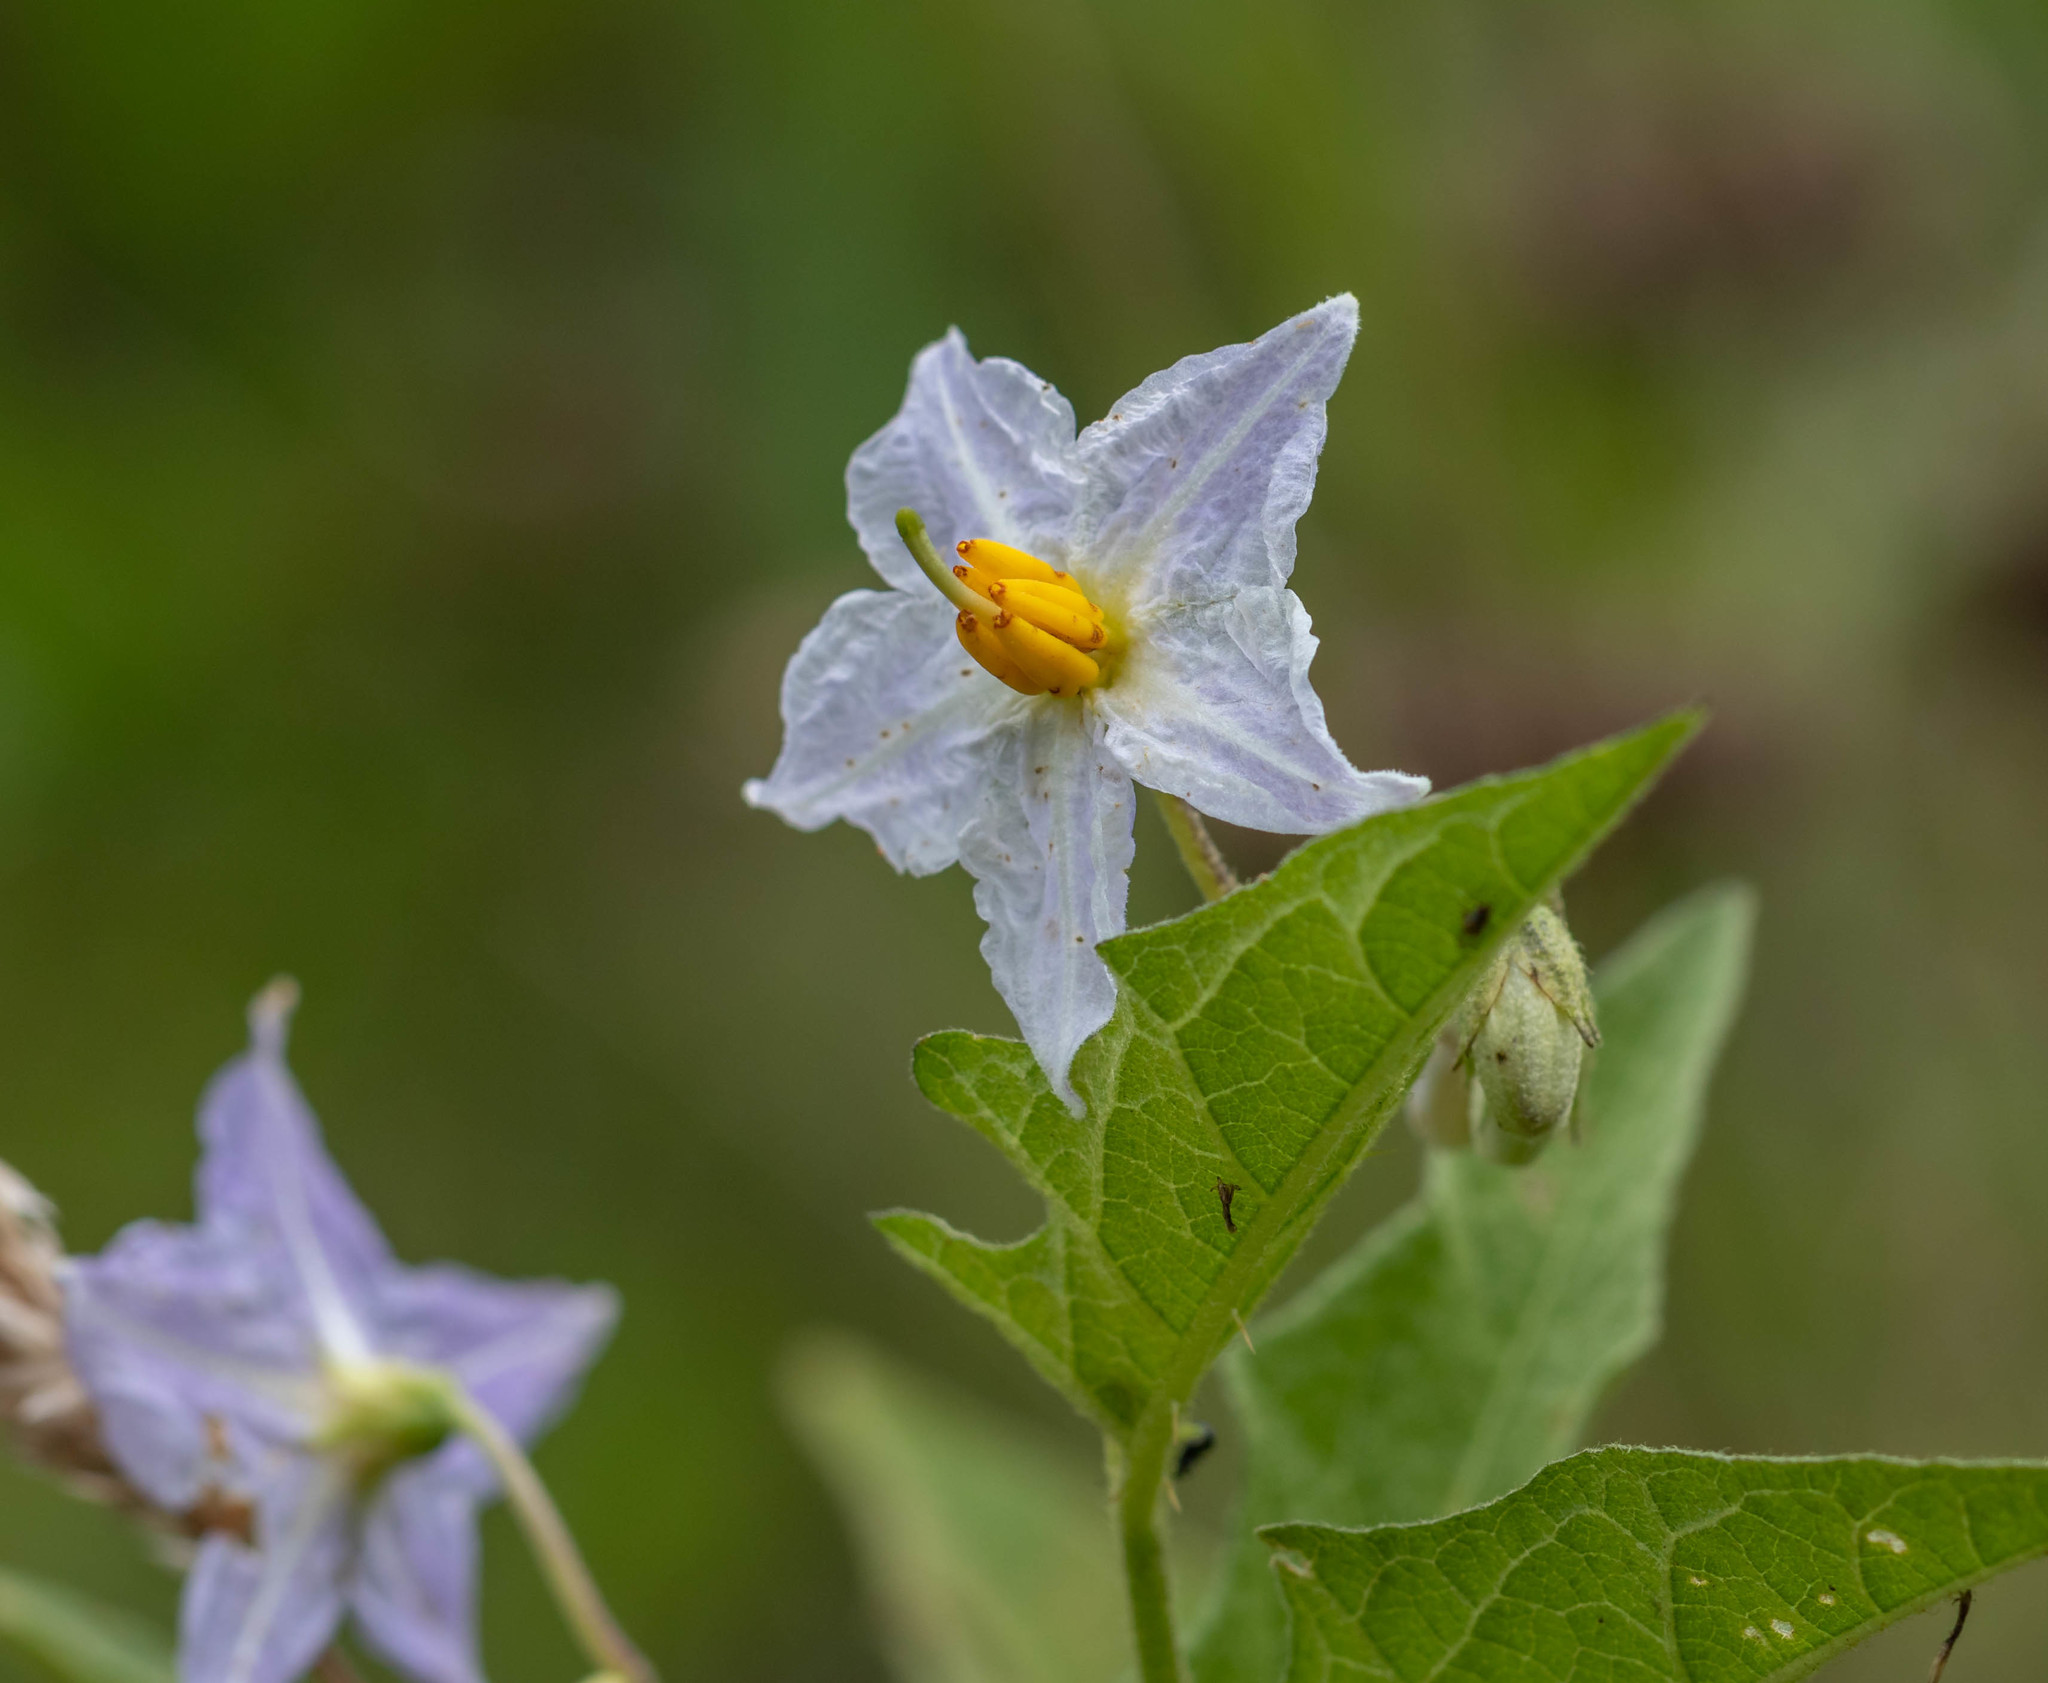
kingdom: Plantae
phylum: Tracheophyta
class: Magnoliopsida
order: Solanales
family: Solanaceae
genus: Solanum
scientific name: Solanum carolinense
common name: Horse-nettle
